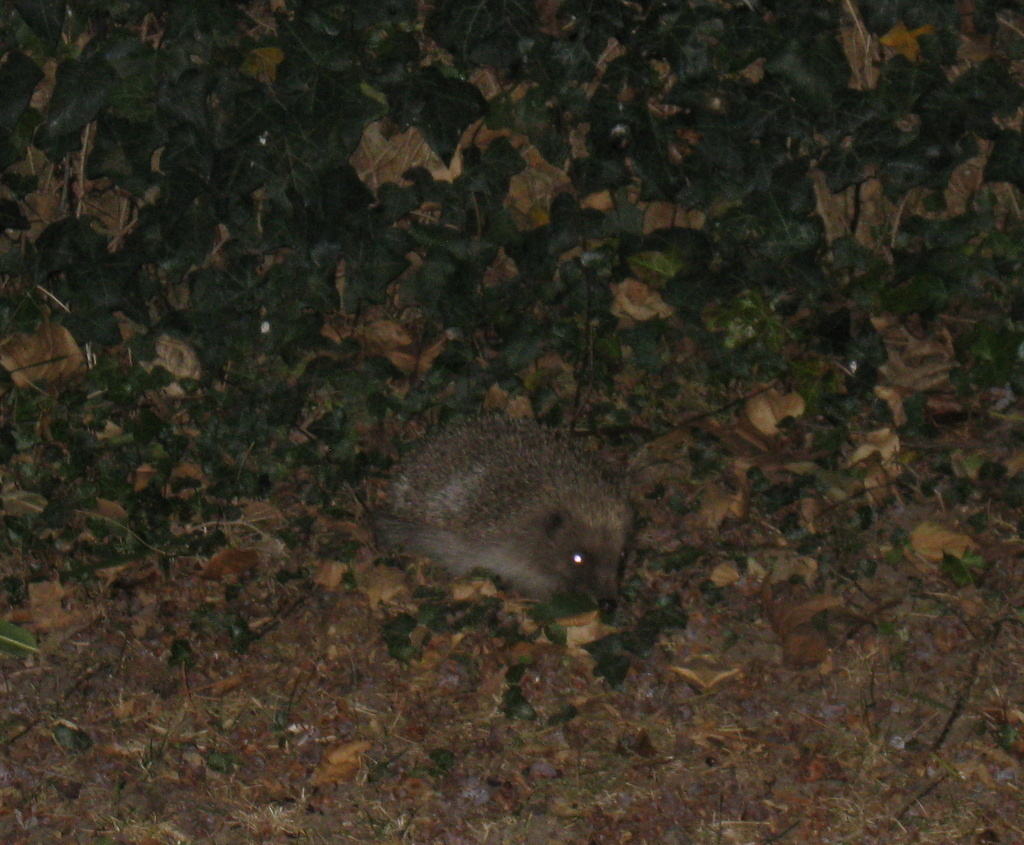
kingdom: Animalia
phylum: Chordata
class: Mammalia
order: Erinaceomorpha
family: Erinaceidae
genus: Erinaceus
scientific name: Erinaceus europaeus
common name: West european hedgehog
